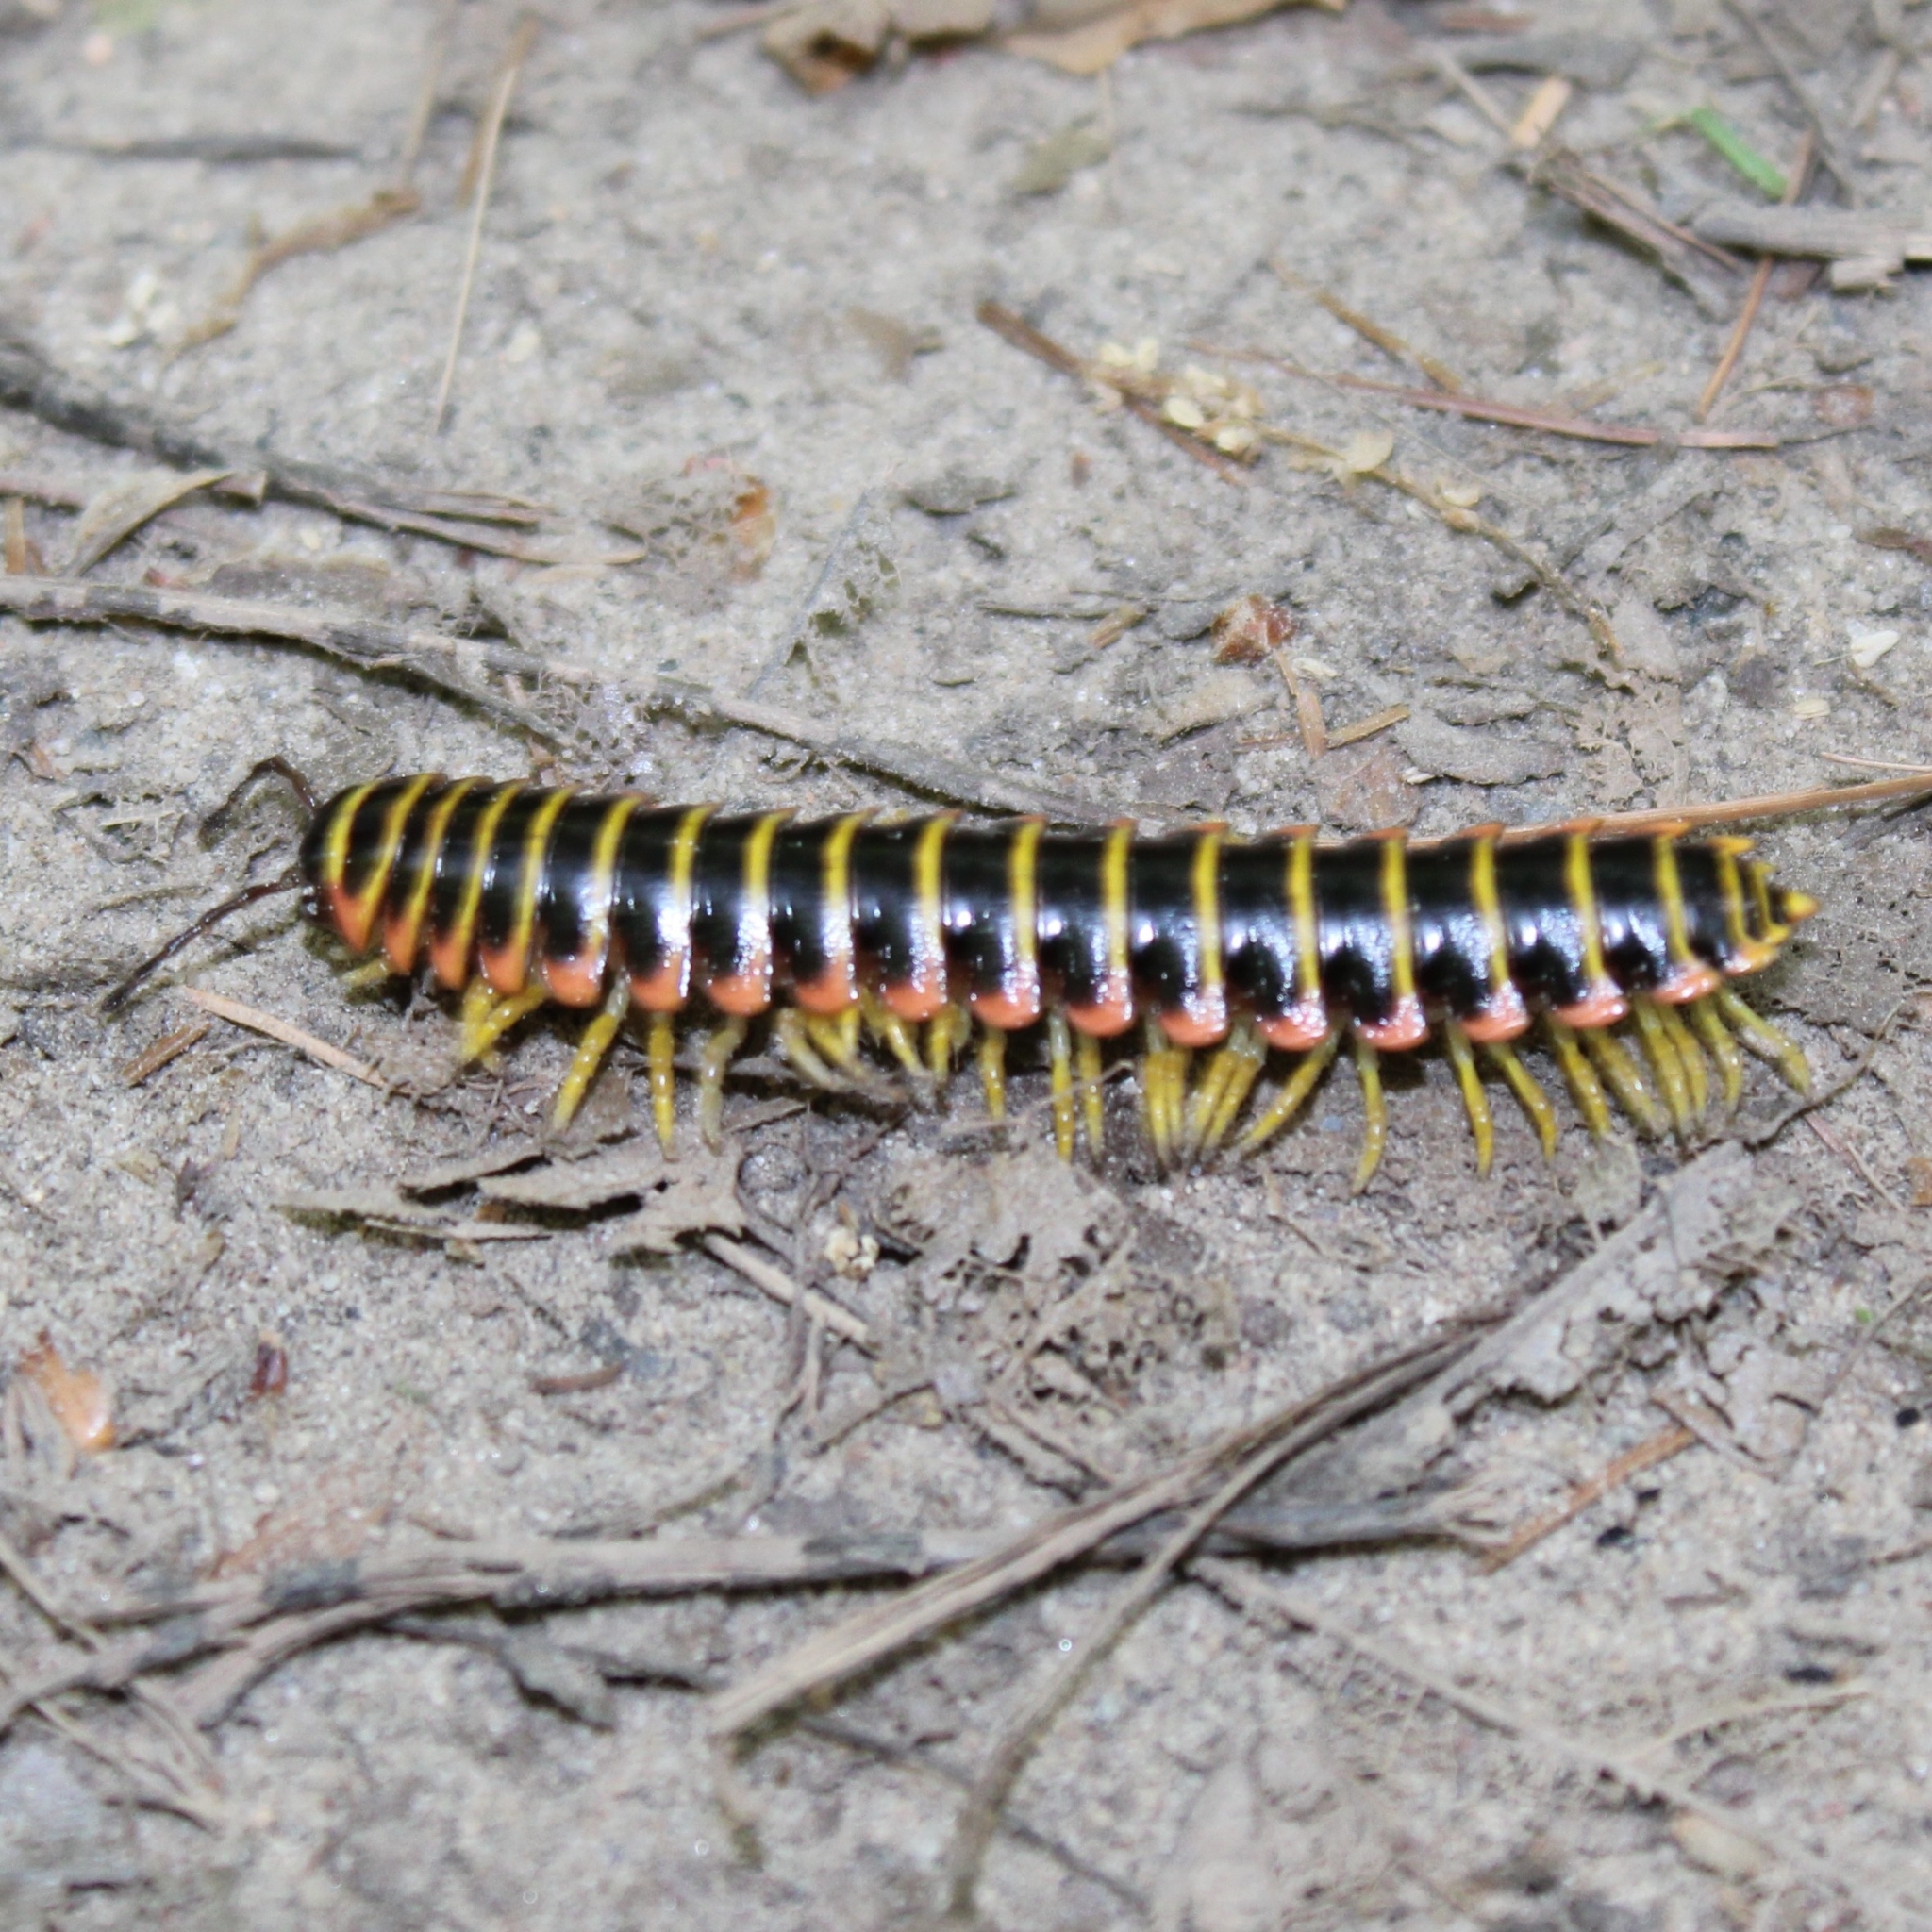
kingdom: Animalia
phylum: Arthropoda
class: Diplopoda
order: Polydesmida
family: Xystodesmidae
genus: Apheloria
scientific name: Apheloria virginiensis
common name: Black-and-gold flat millipede
